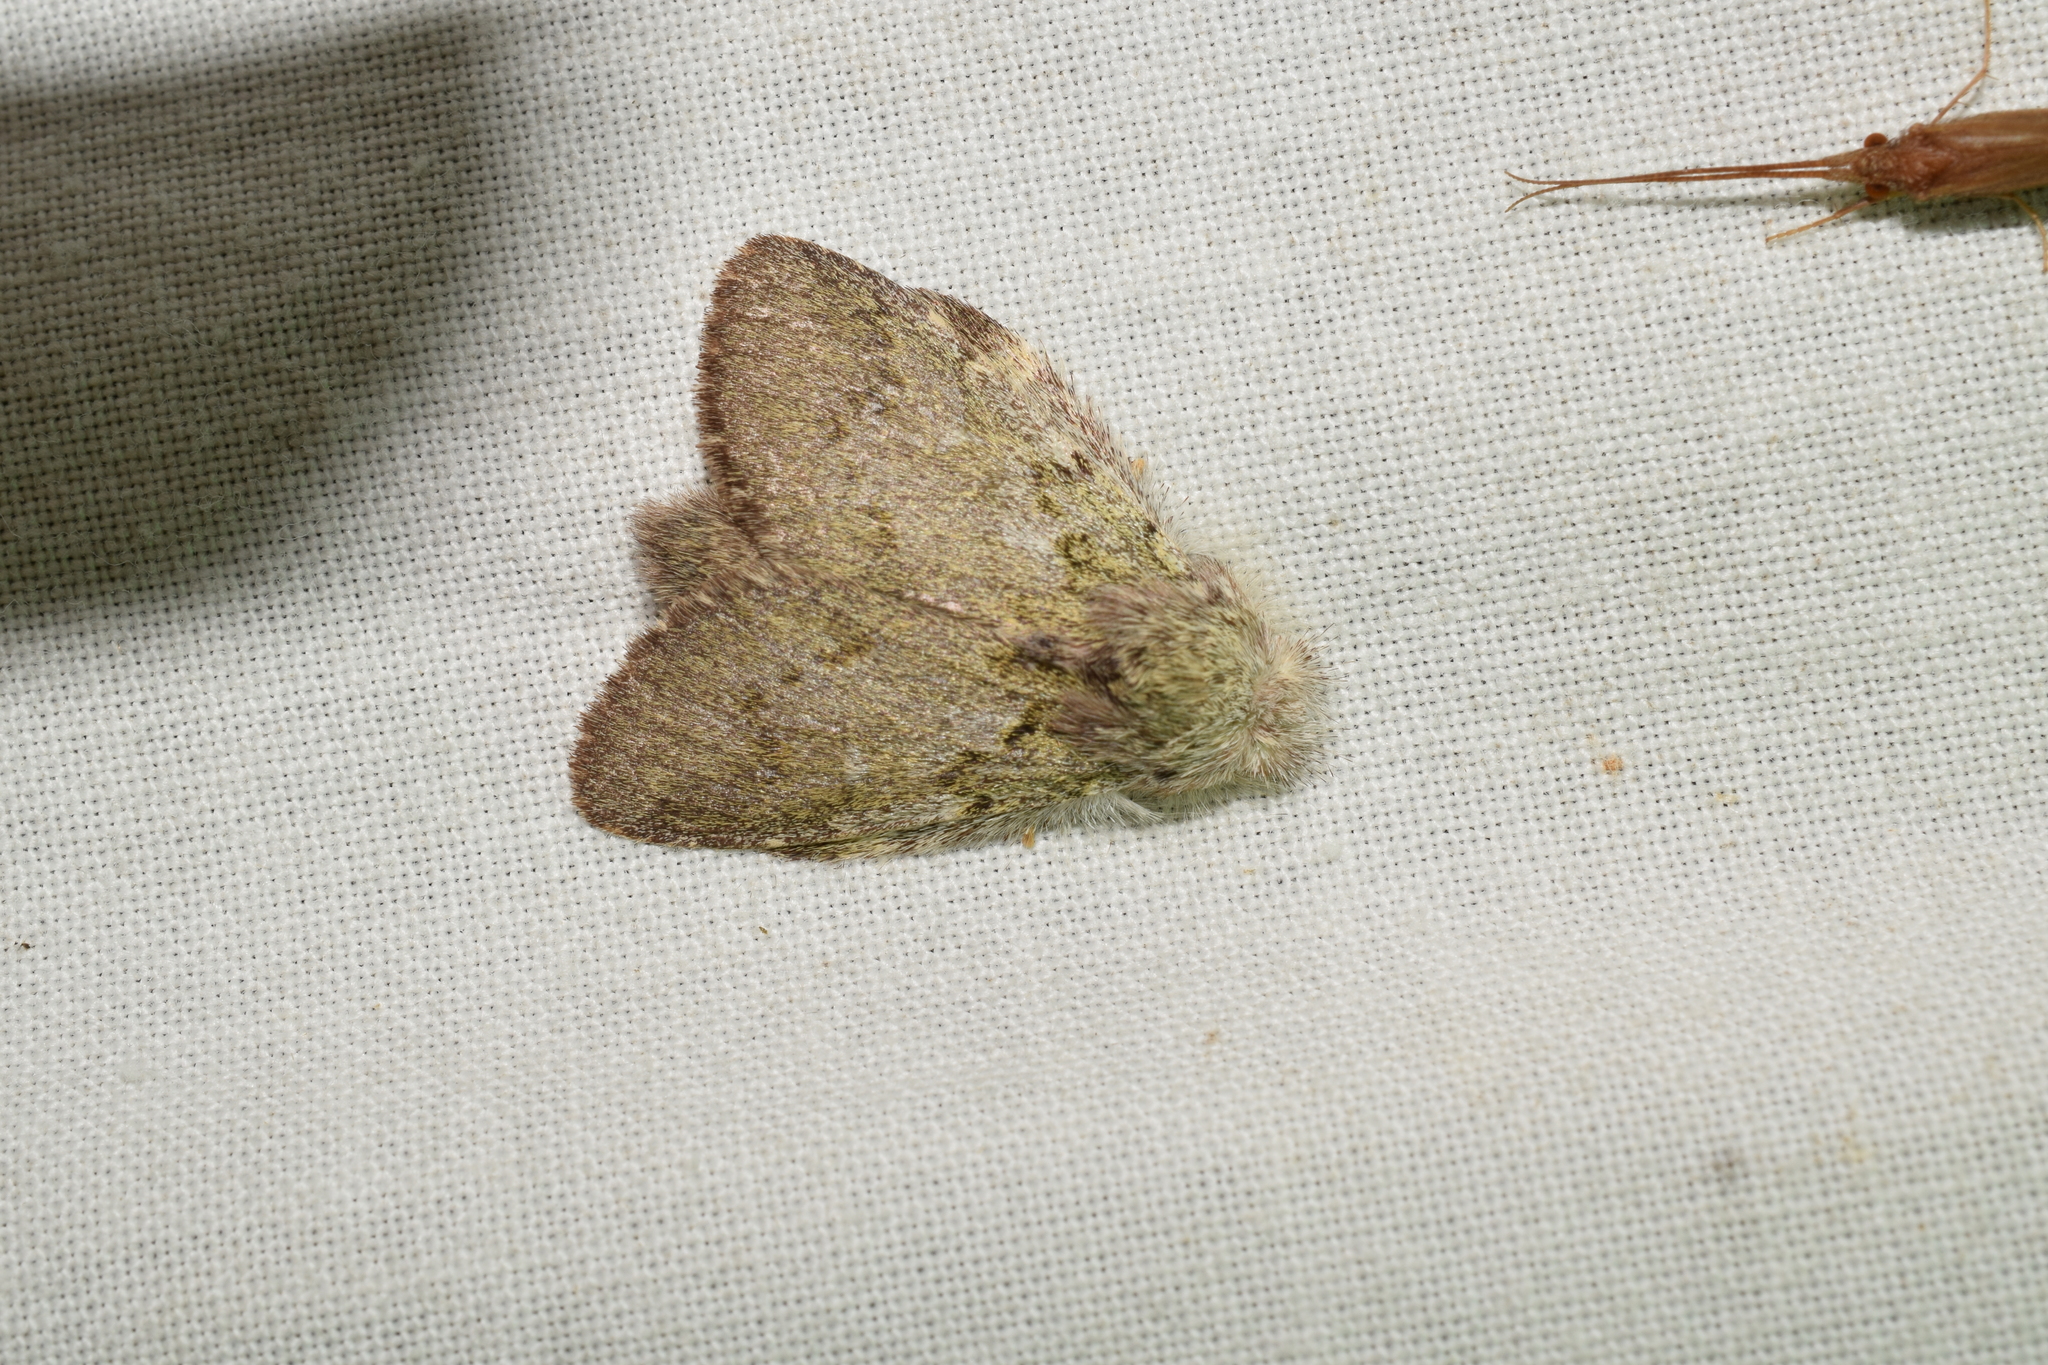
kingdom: Animalia
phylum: Arthropoda
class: Insecta
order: Lepidoptera
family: Notodontidae
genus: Syntypistis
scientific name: Syntypistis
